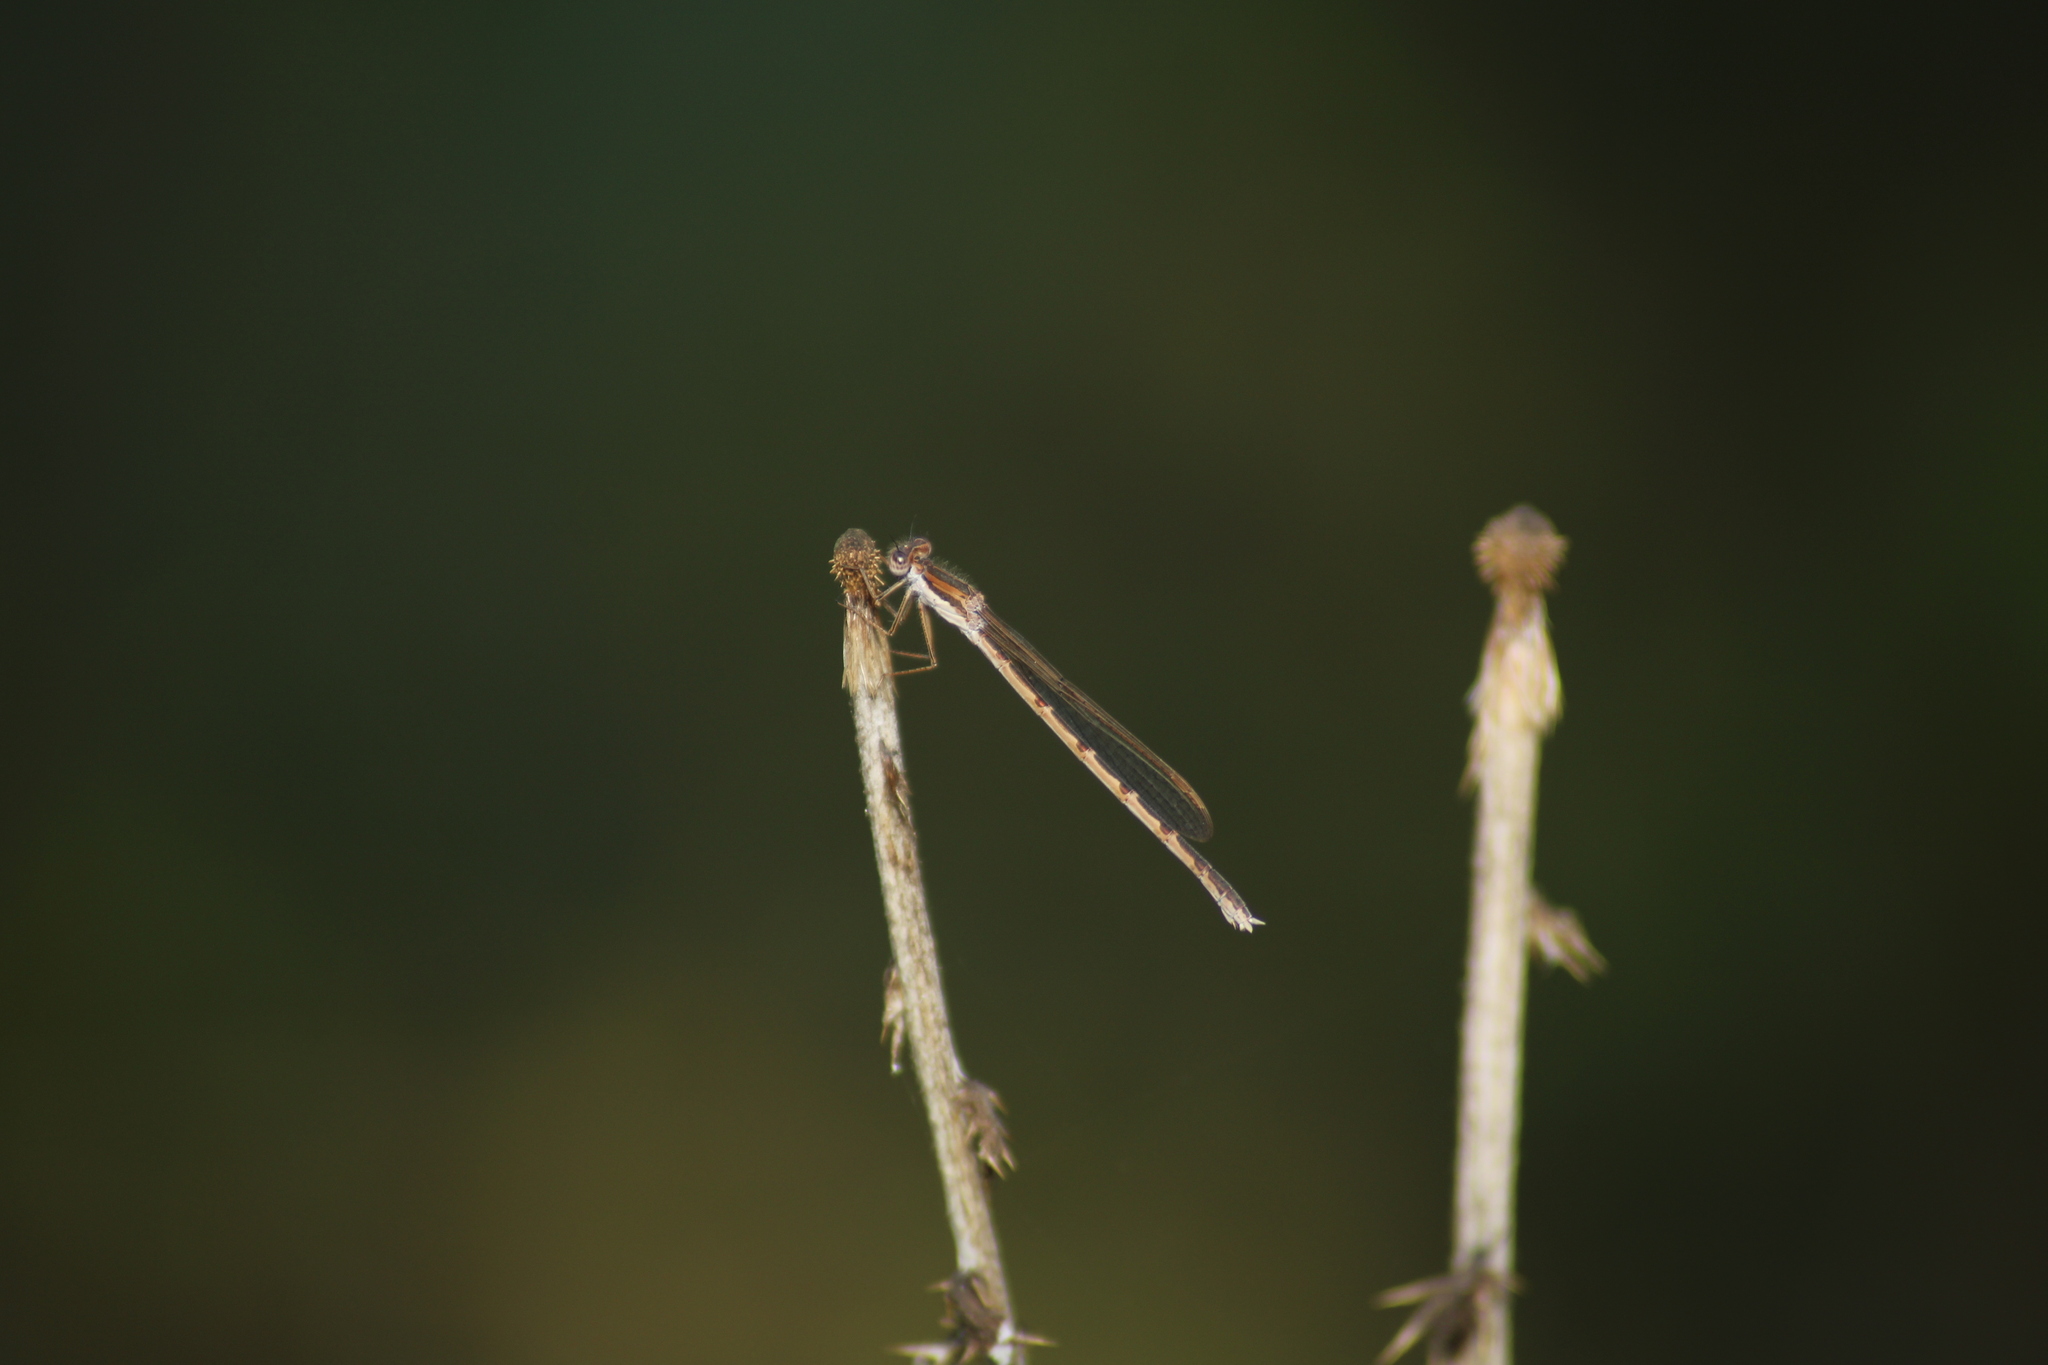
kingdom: Animalia
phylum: Arthropoda
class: Insecta
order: Odonata
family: Lestidae
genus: Sympecma
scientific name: Sympecma fusca
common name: Common winter damsel
